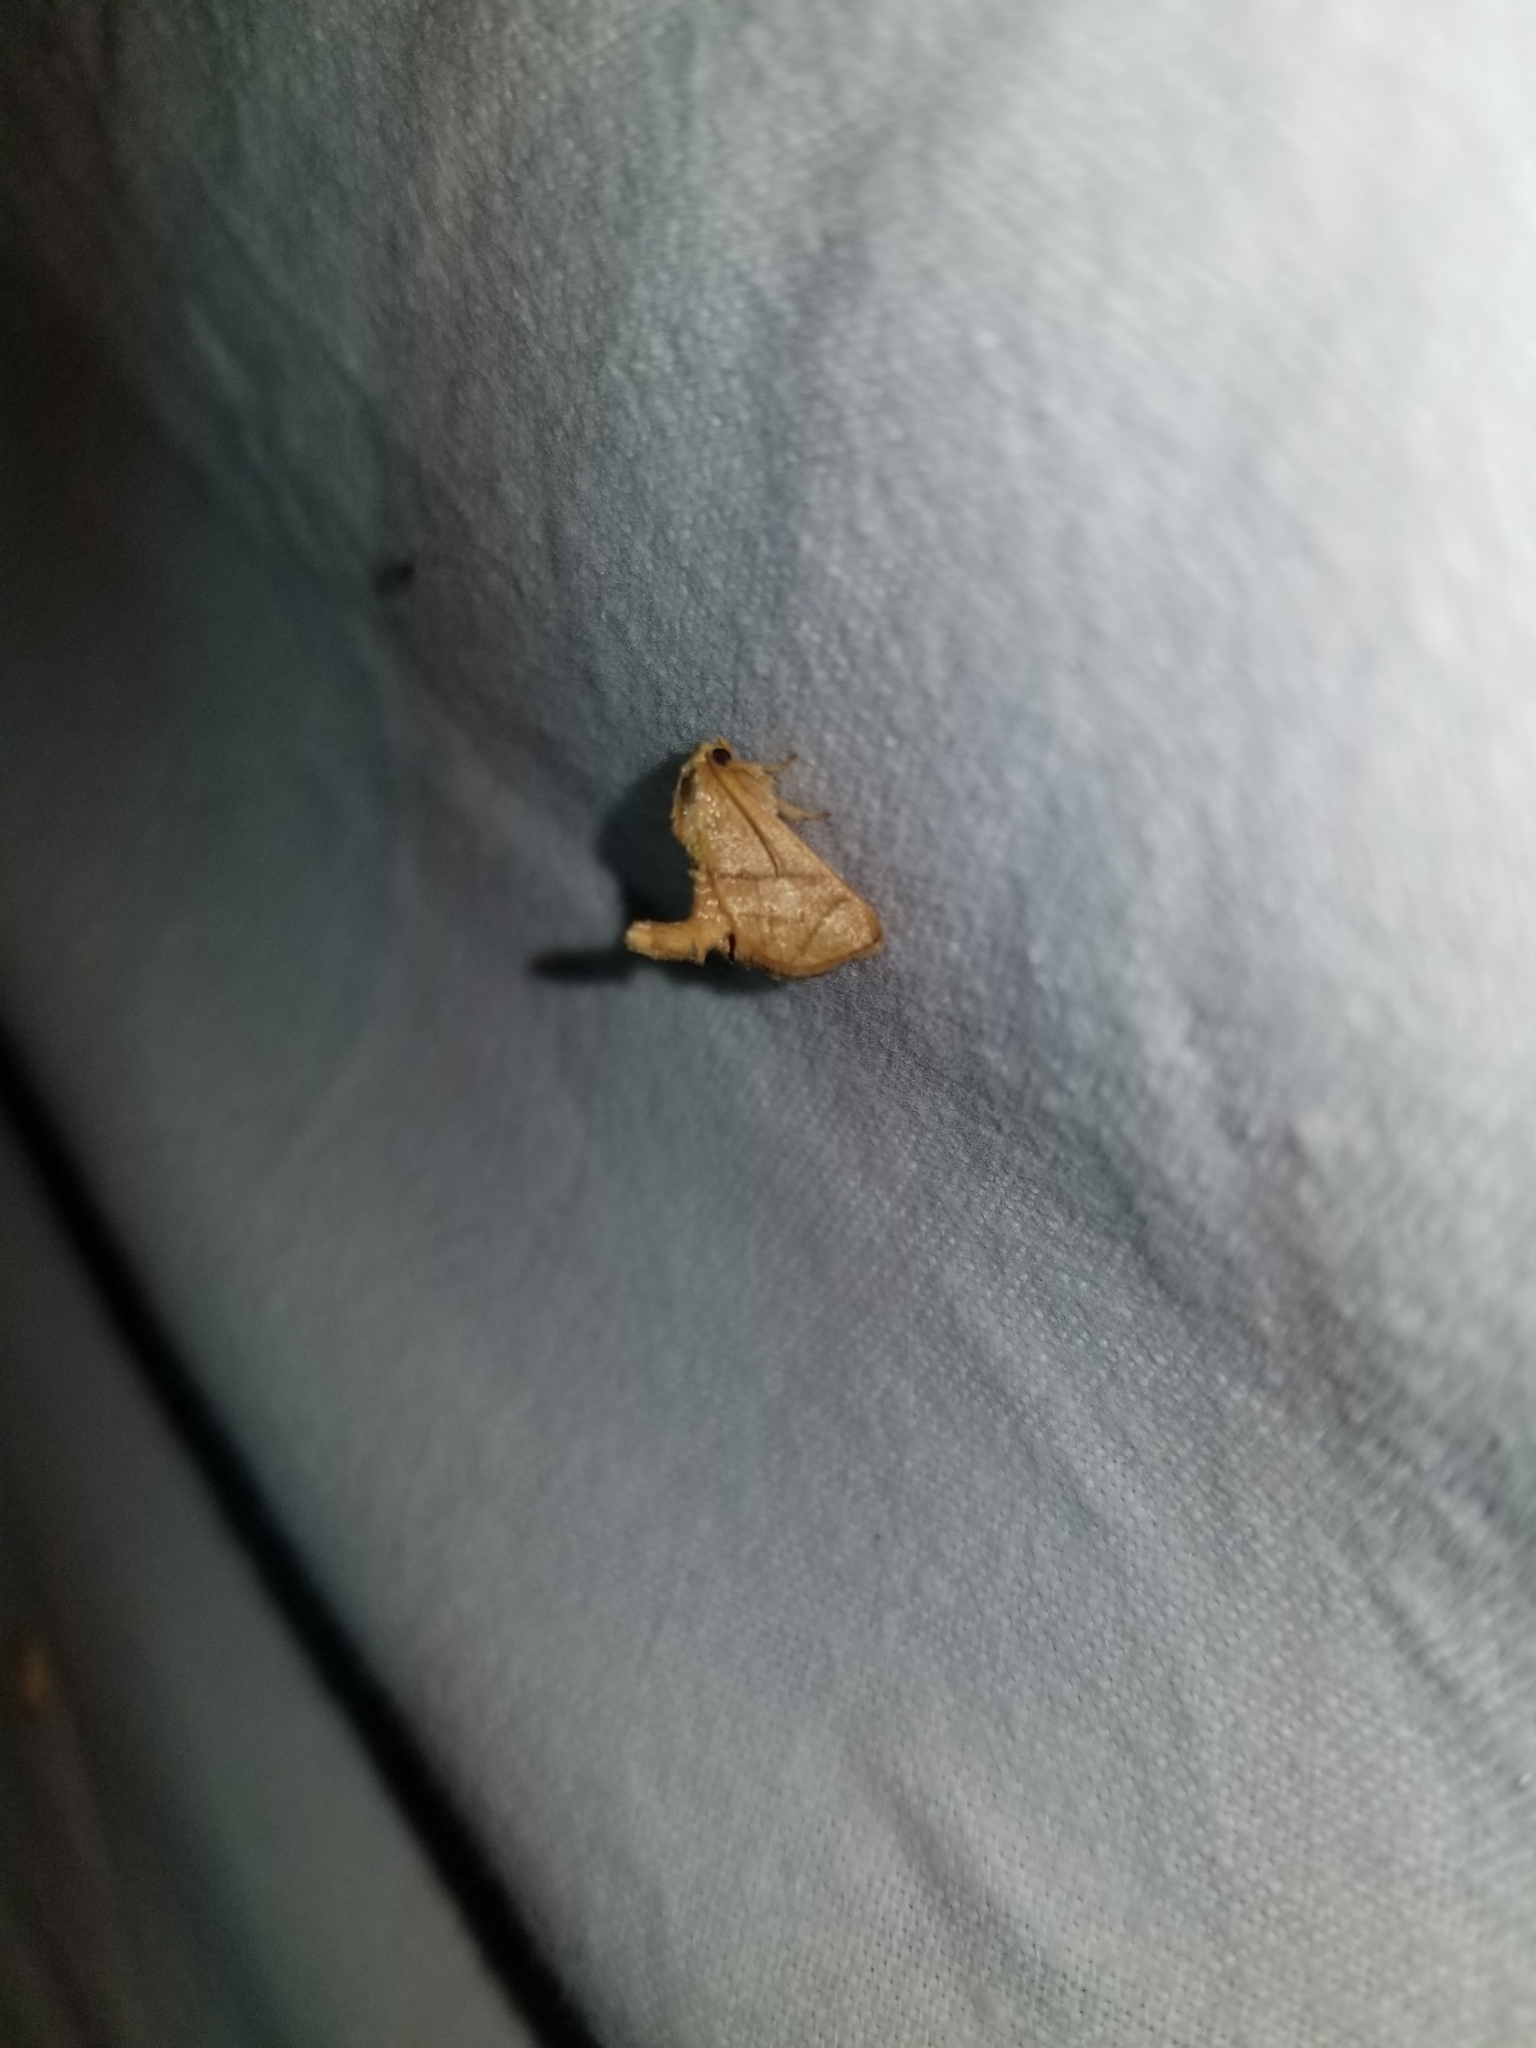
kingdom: Animalia
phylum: Arthropoda
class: Insecta
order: Lepidoptera
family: Limacodidae
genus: Apoda
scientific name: Apoda y-inversa
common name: Yellow-collared slug moth
